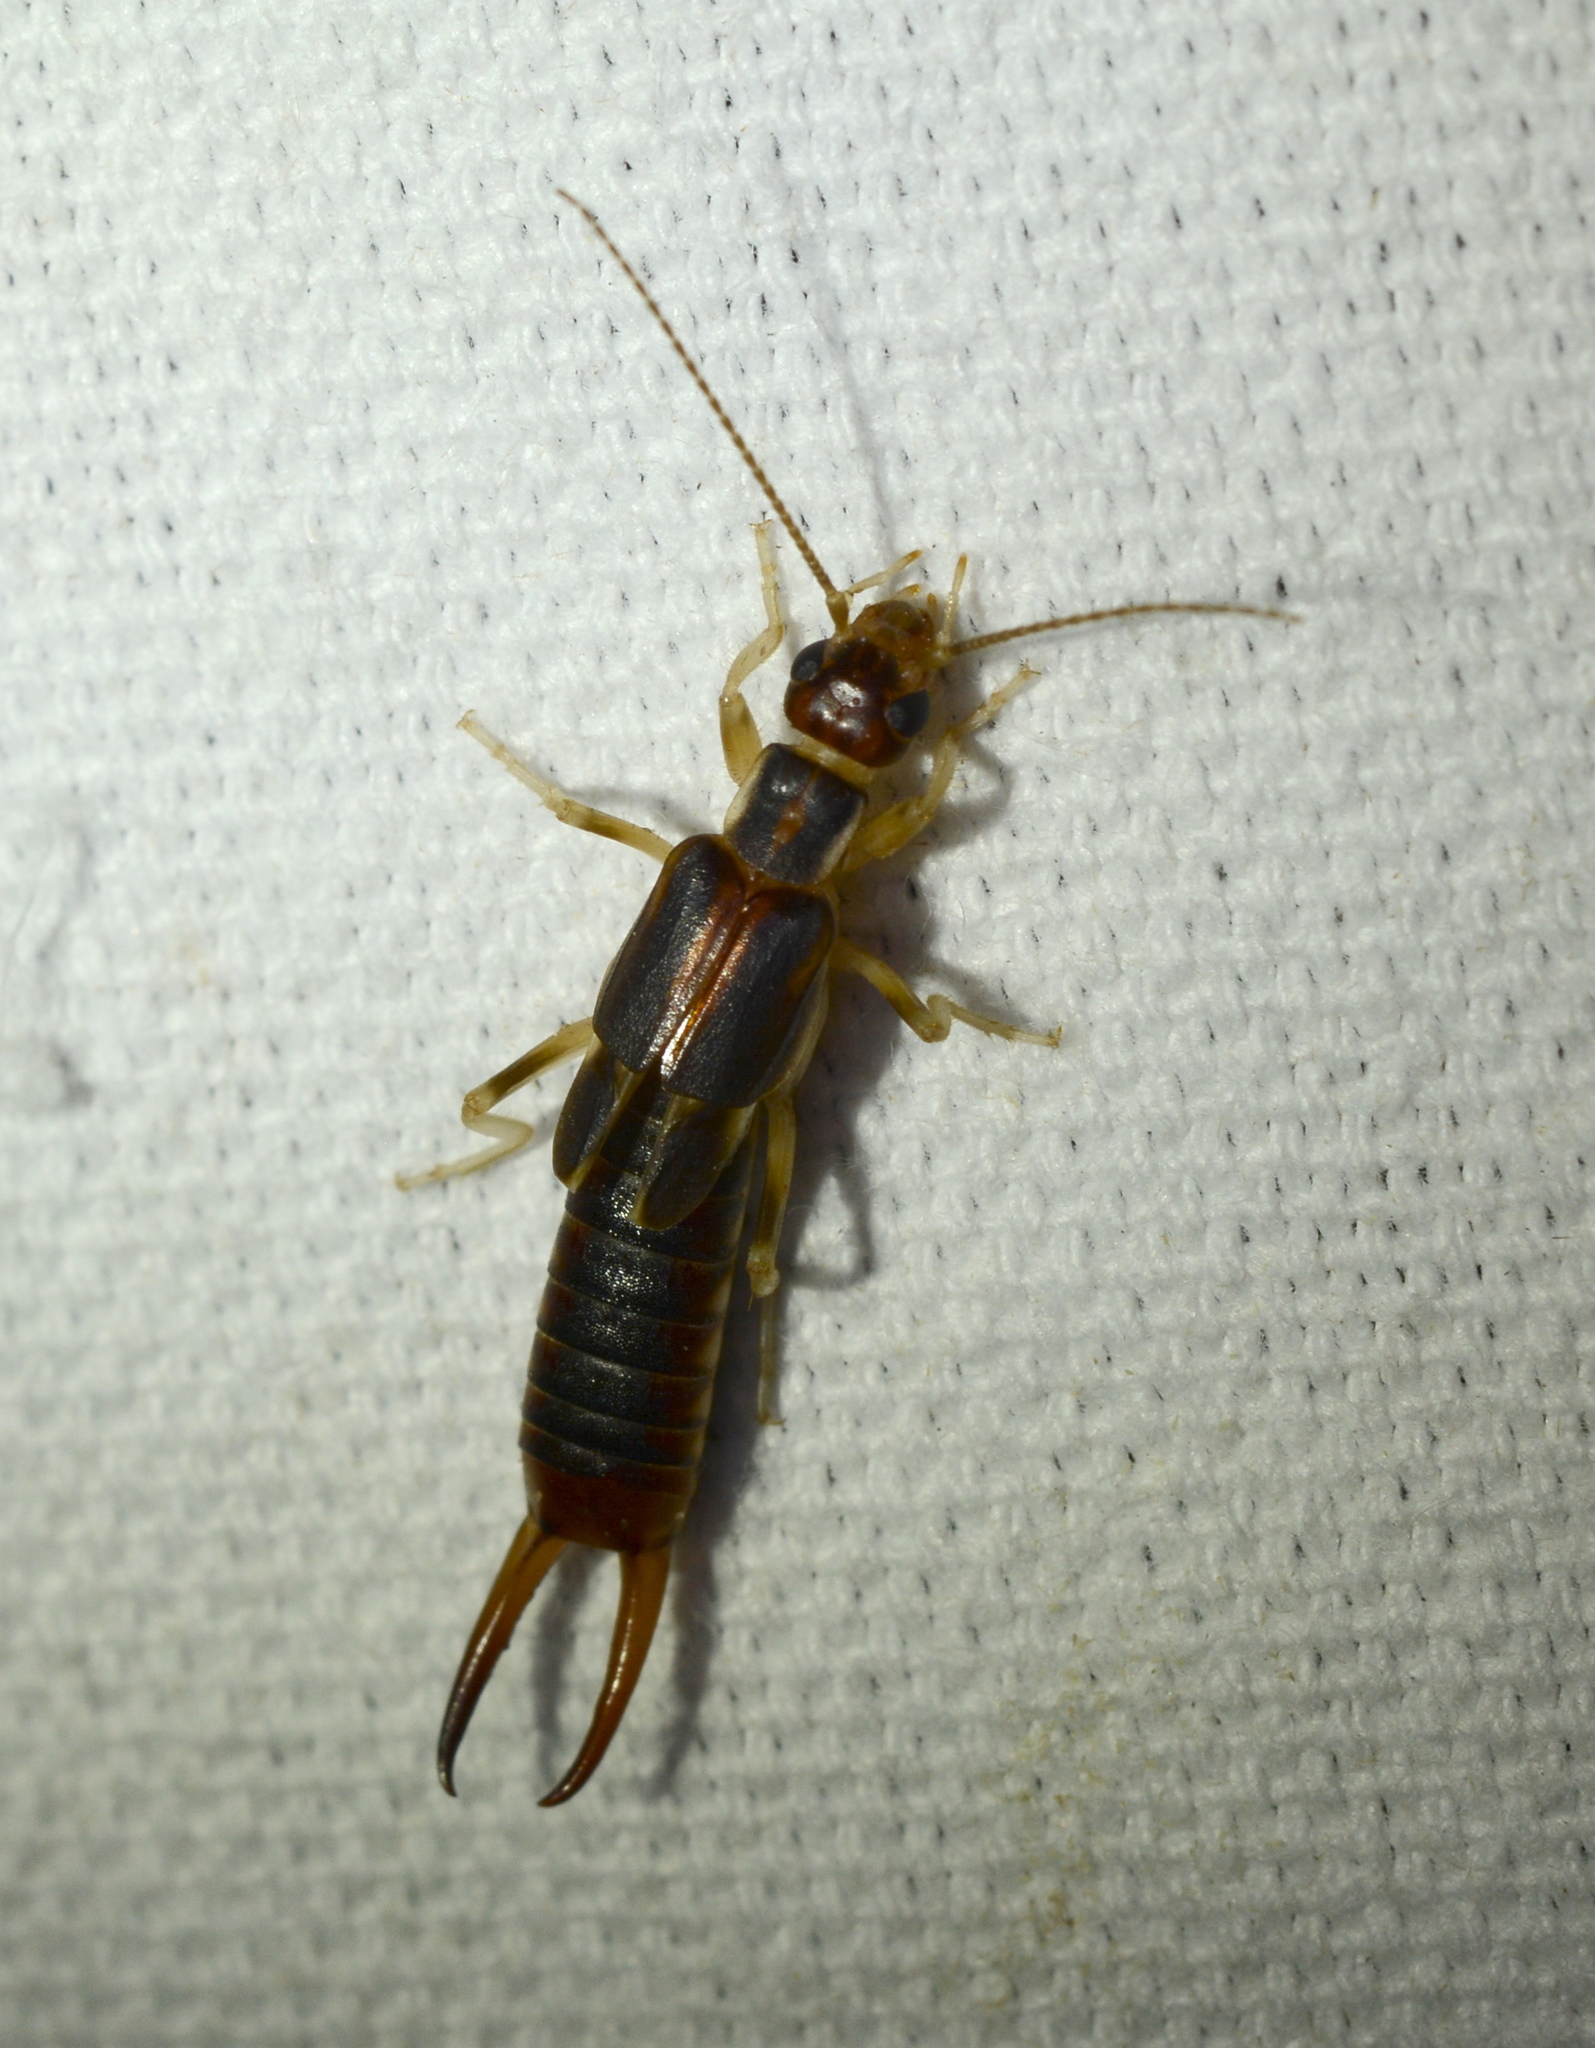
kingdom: Animalia
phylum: Arthropoda
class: Insecta
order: Dermaptera
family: Labiduridae
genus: Labidura
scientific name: Labidura riparia
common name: Striped earwig
